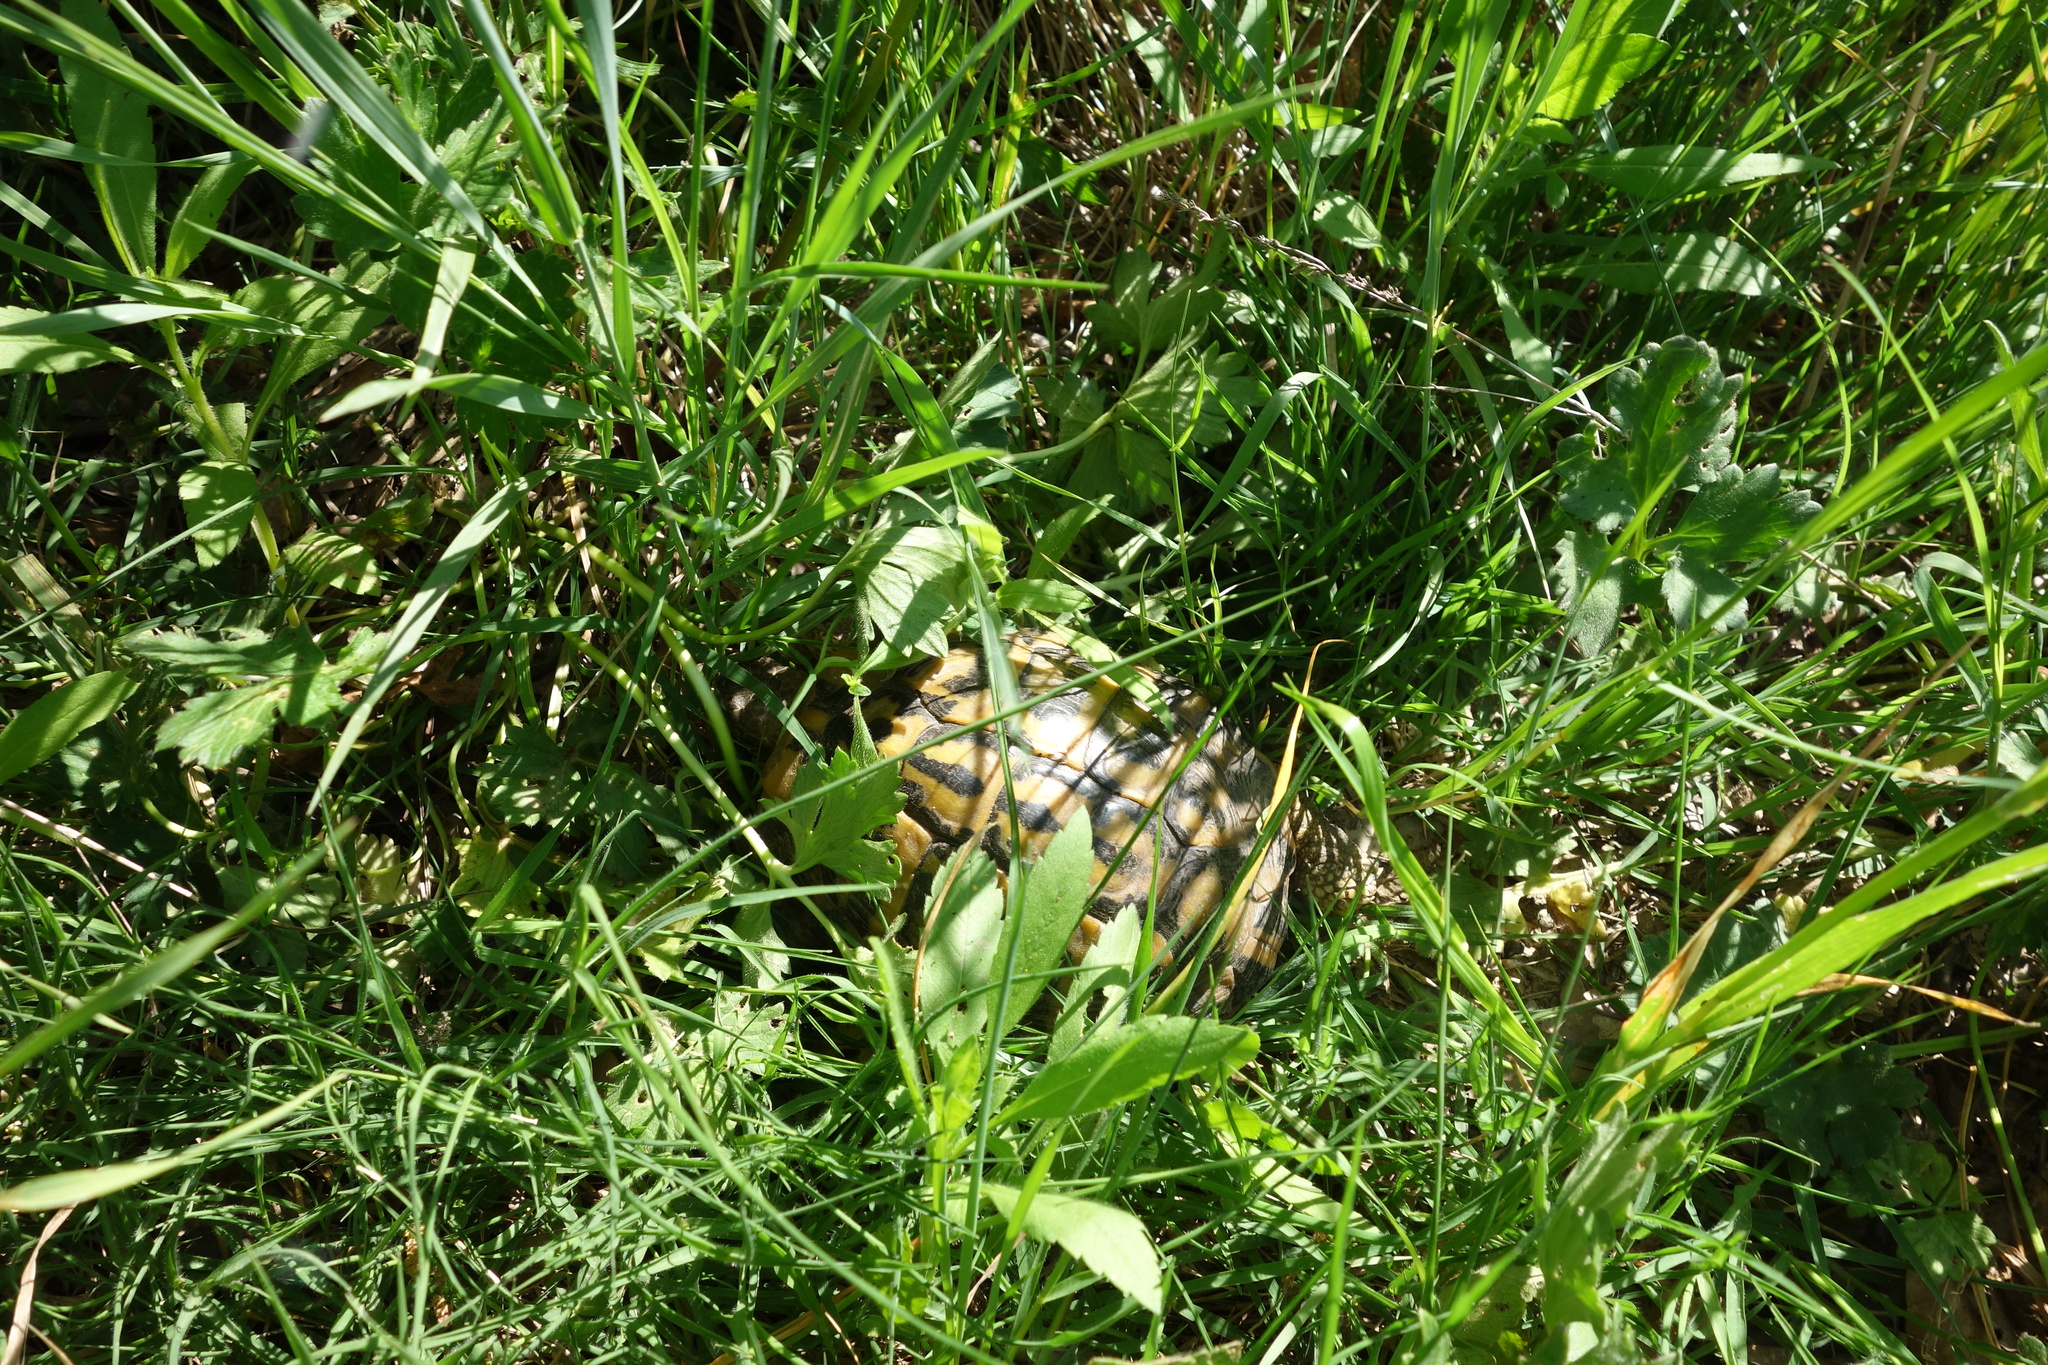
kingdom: Animalia
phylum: Chordata
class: Testudines
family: Testudinidae
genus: Testudo
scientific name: Testudo hermanni
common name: Hermann's tortoise
